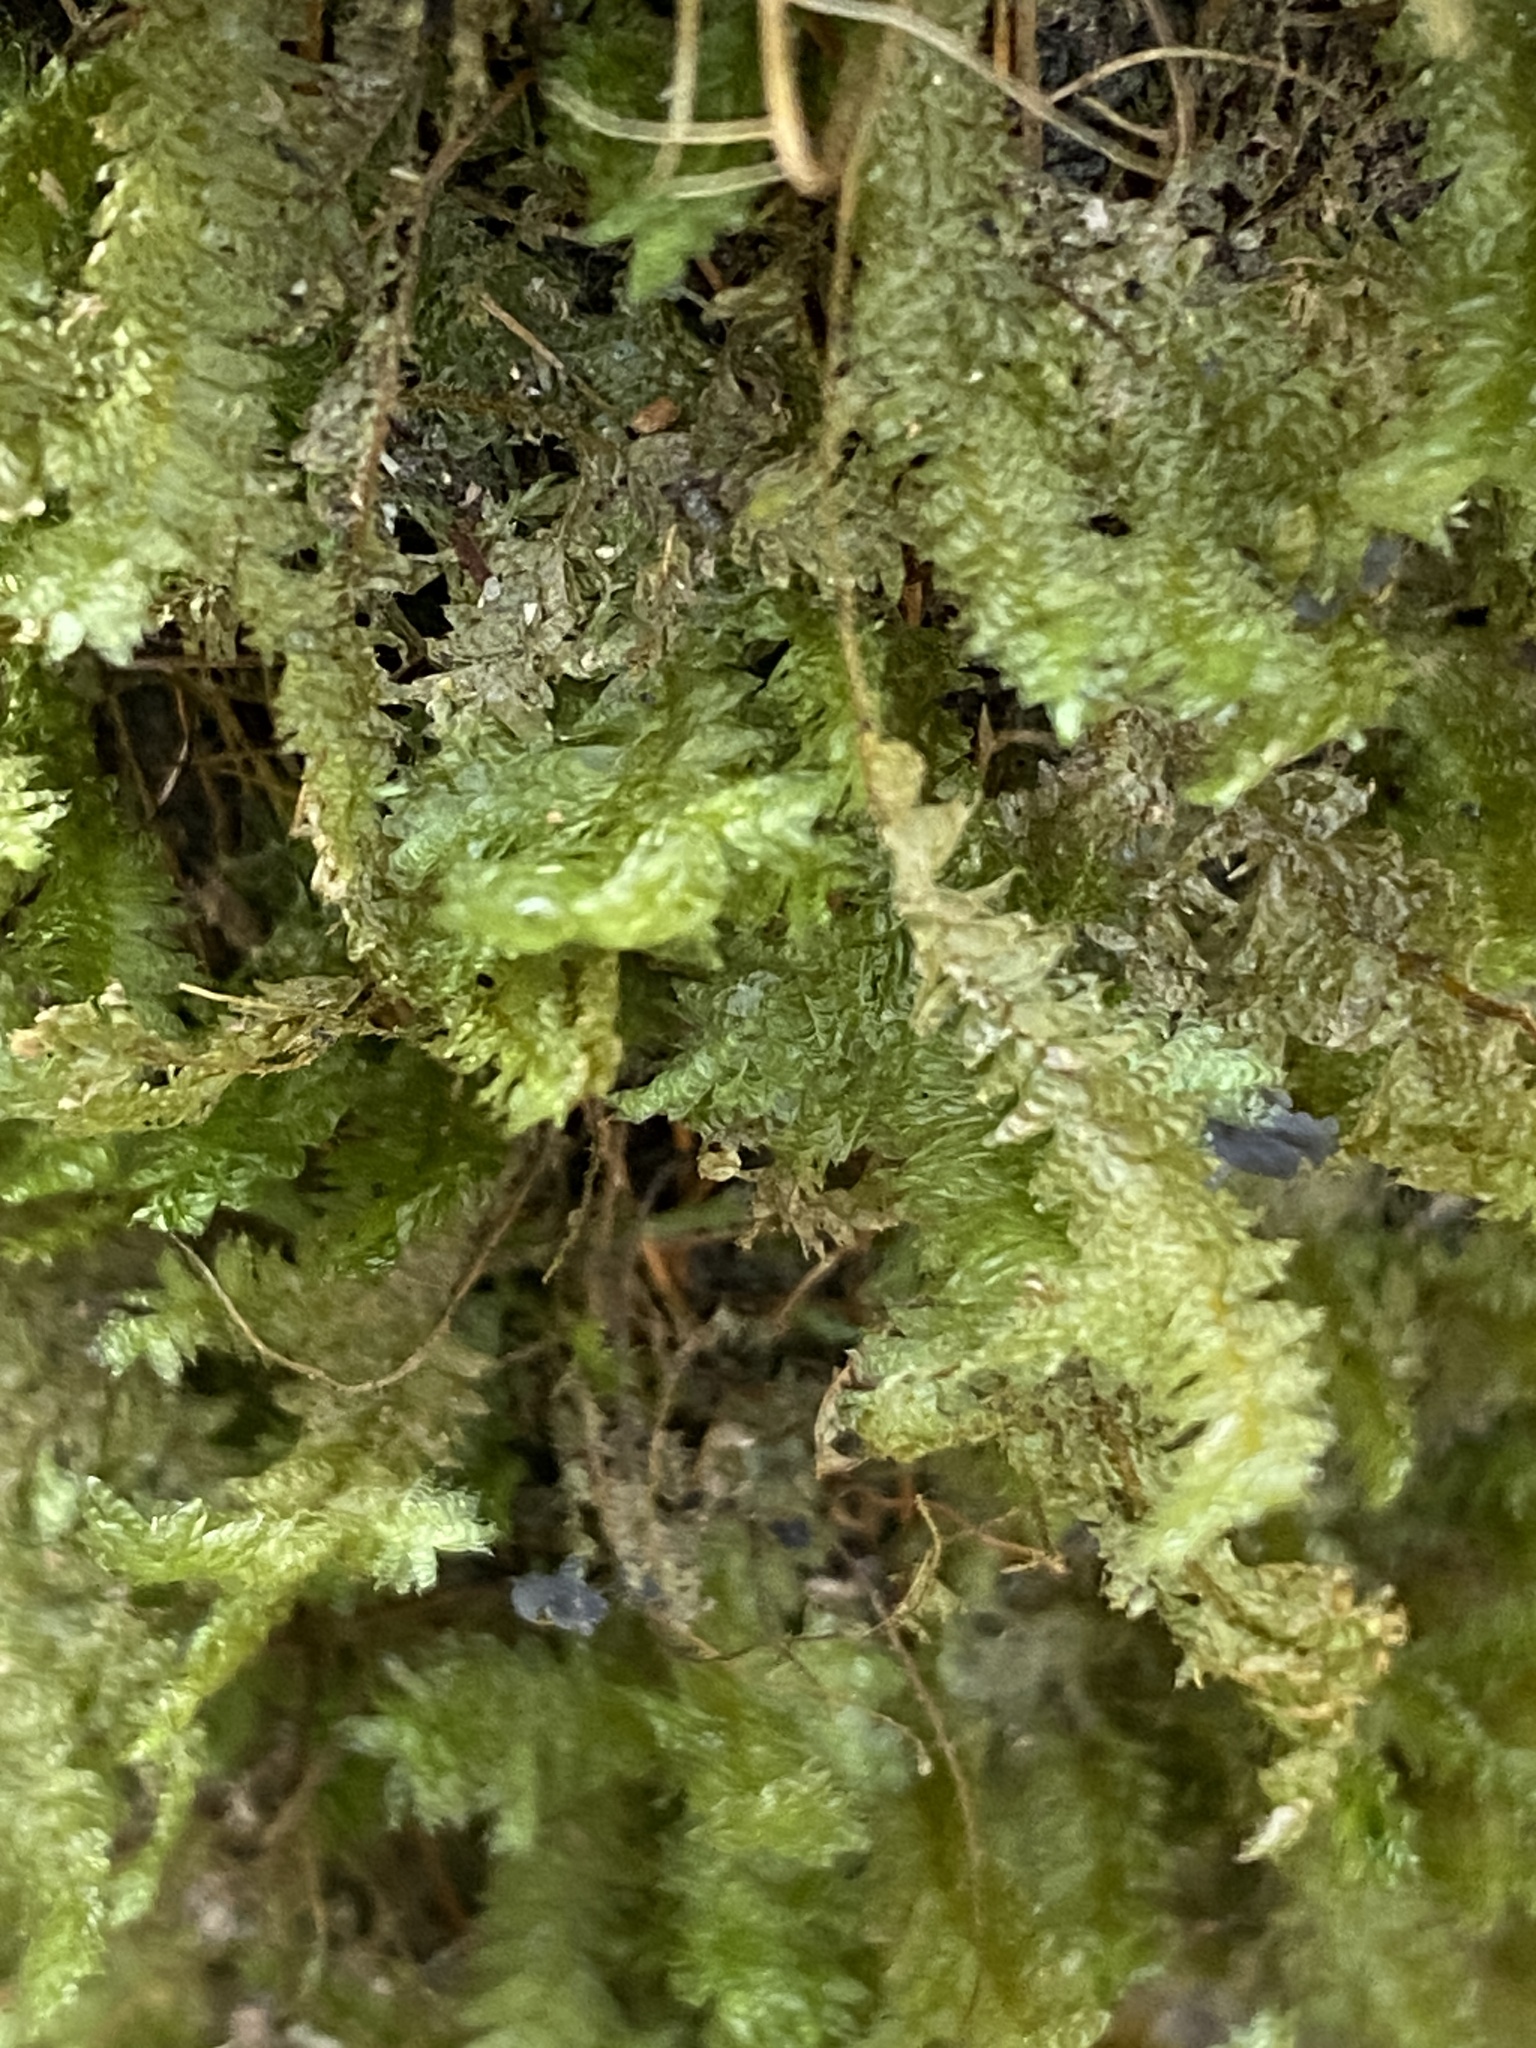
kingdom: Plantae
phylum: Bryophyta
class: Bryopsida
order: Hypnales
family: Neckeraceae
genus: Alleniella
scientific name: Alleniella ehrenbergii
